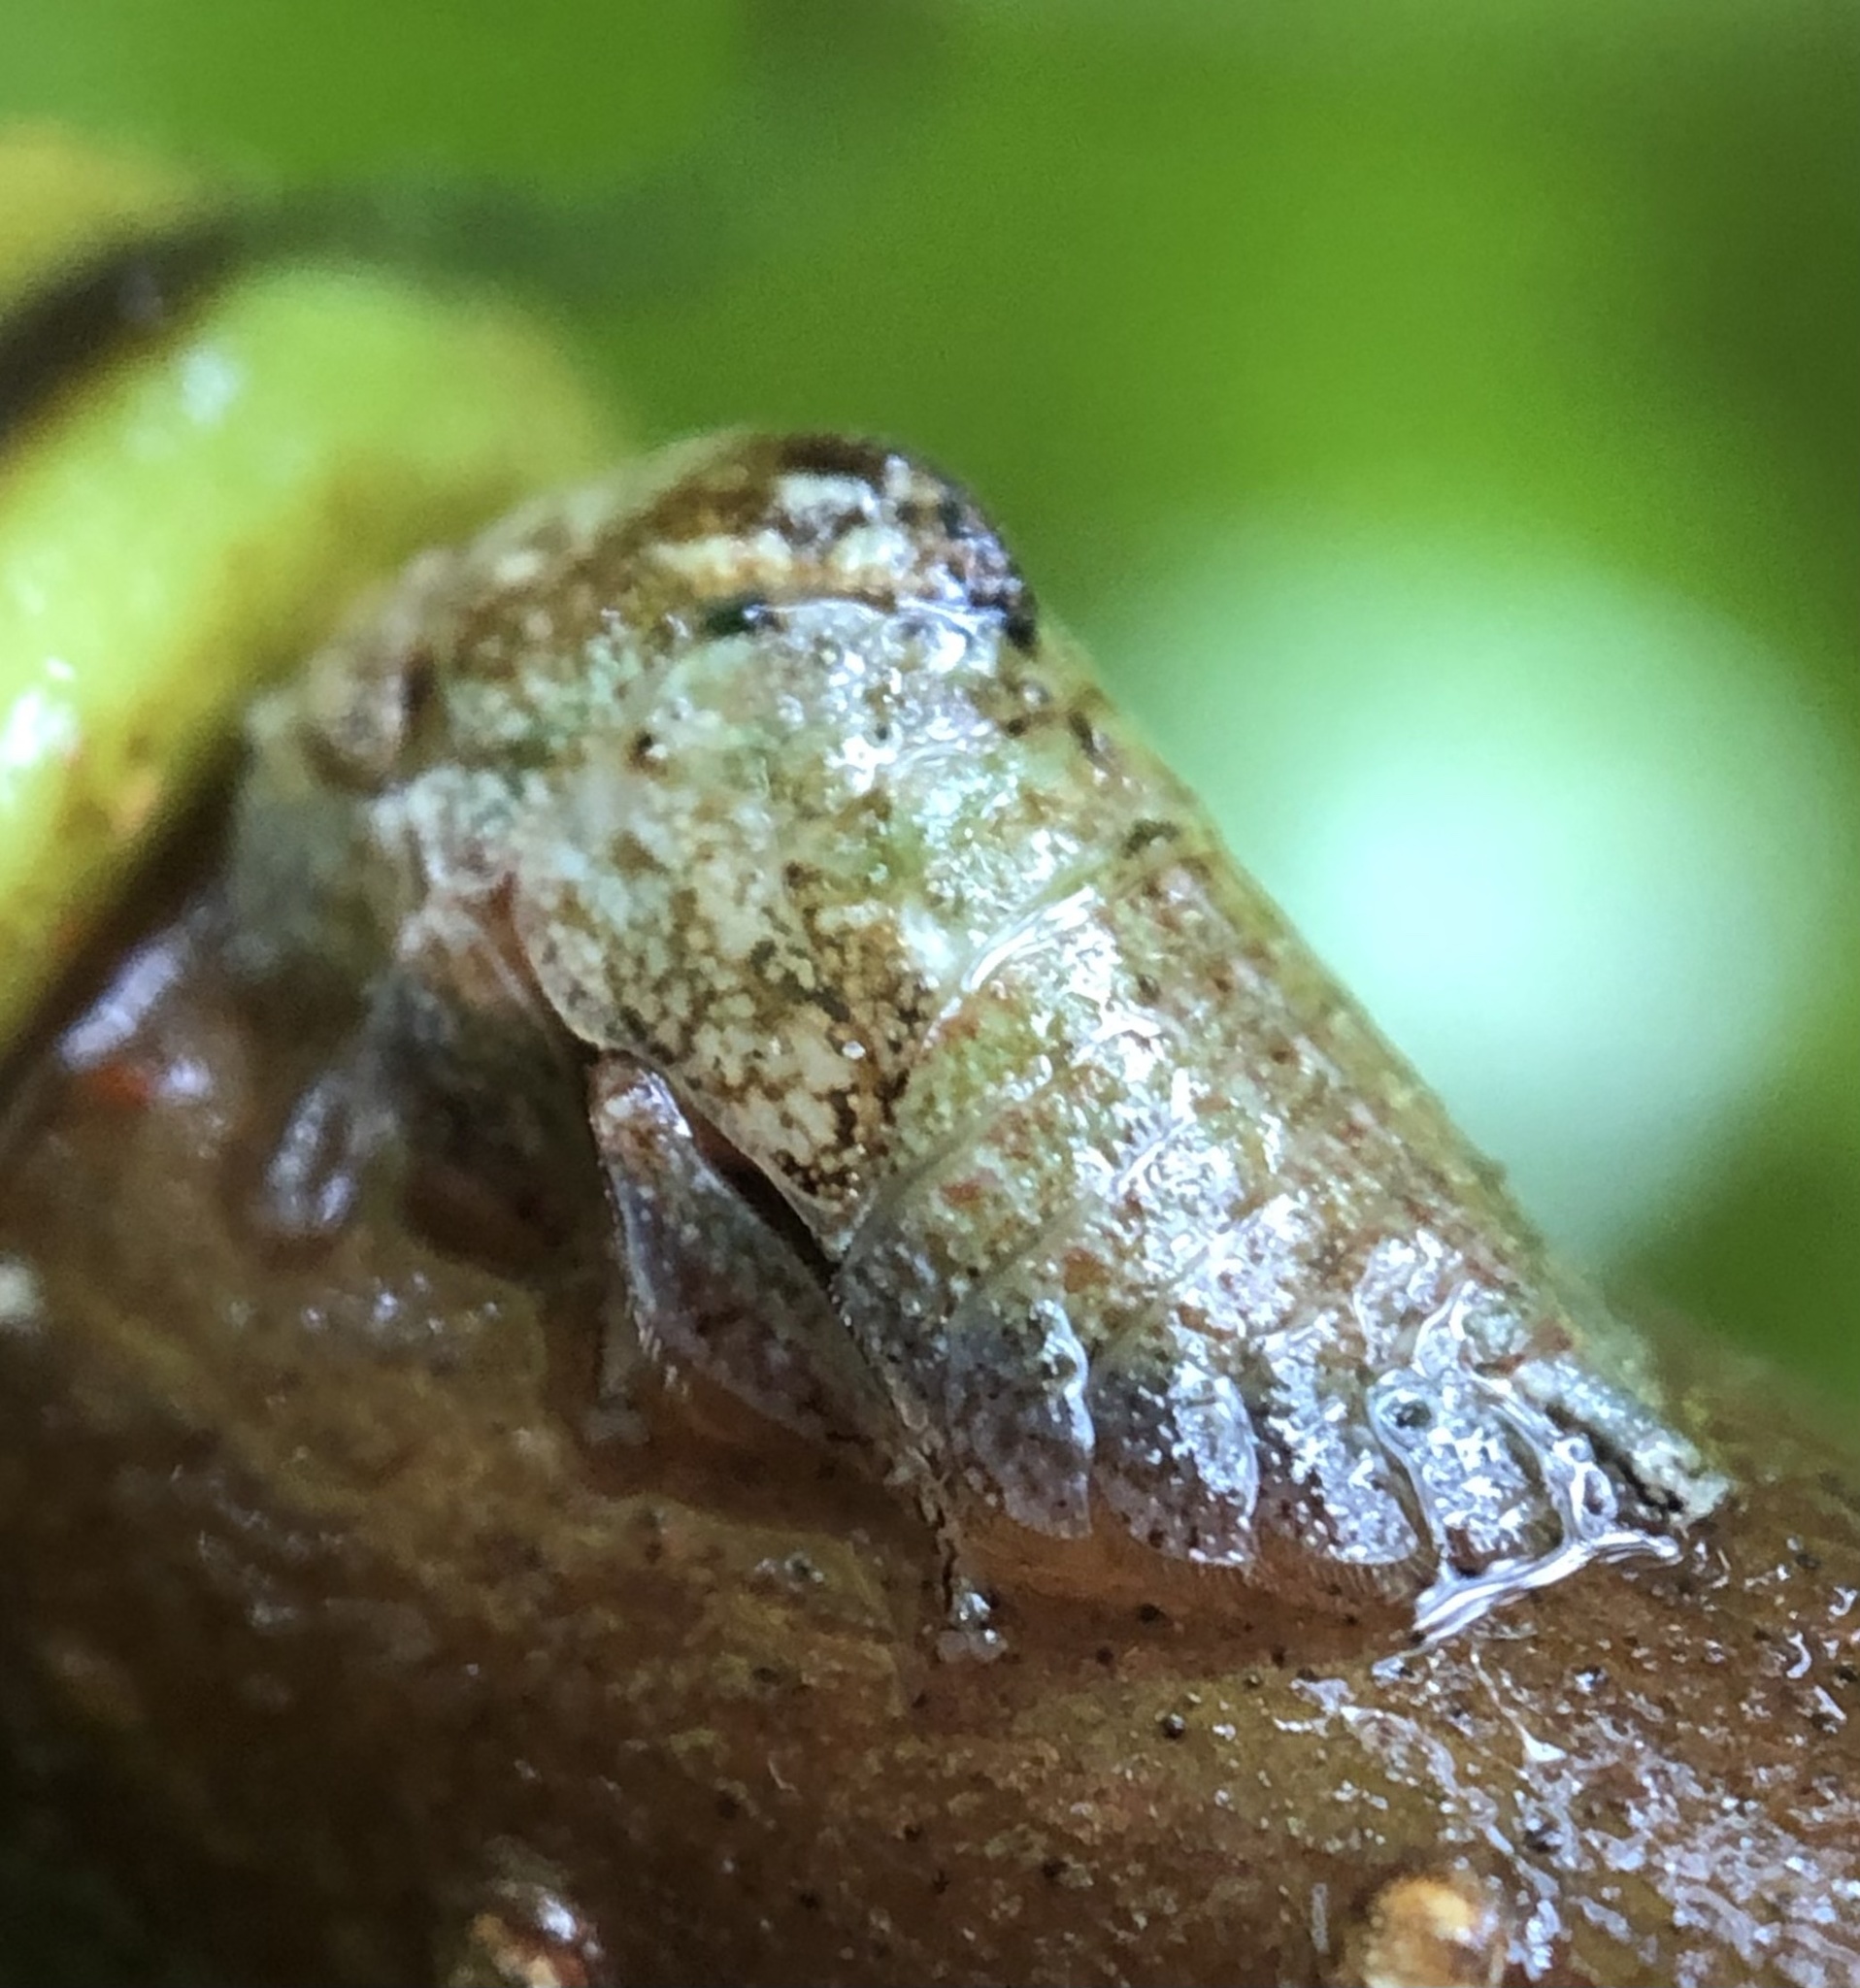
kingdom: Animalia
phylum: Arthropoda
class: Insecta
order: Hemiptera
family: Membracidae
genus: Hebetica
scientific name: Hebetica
